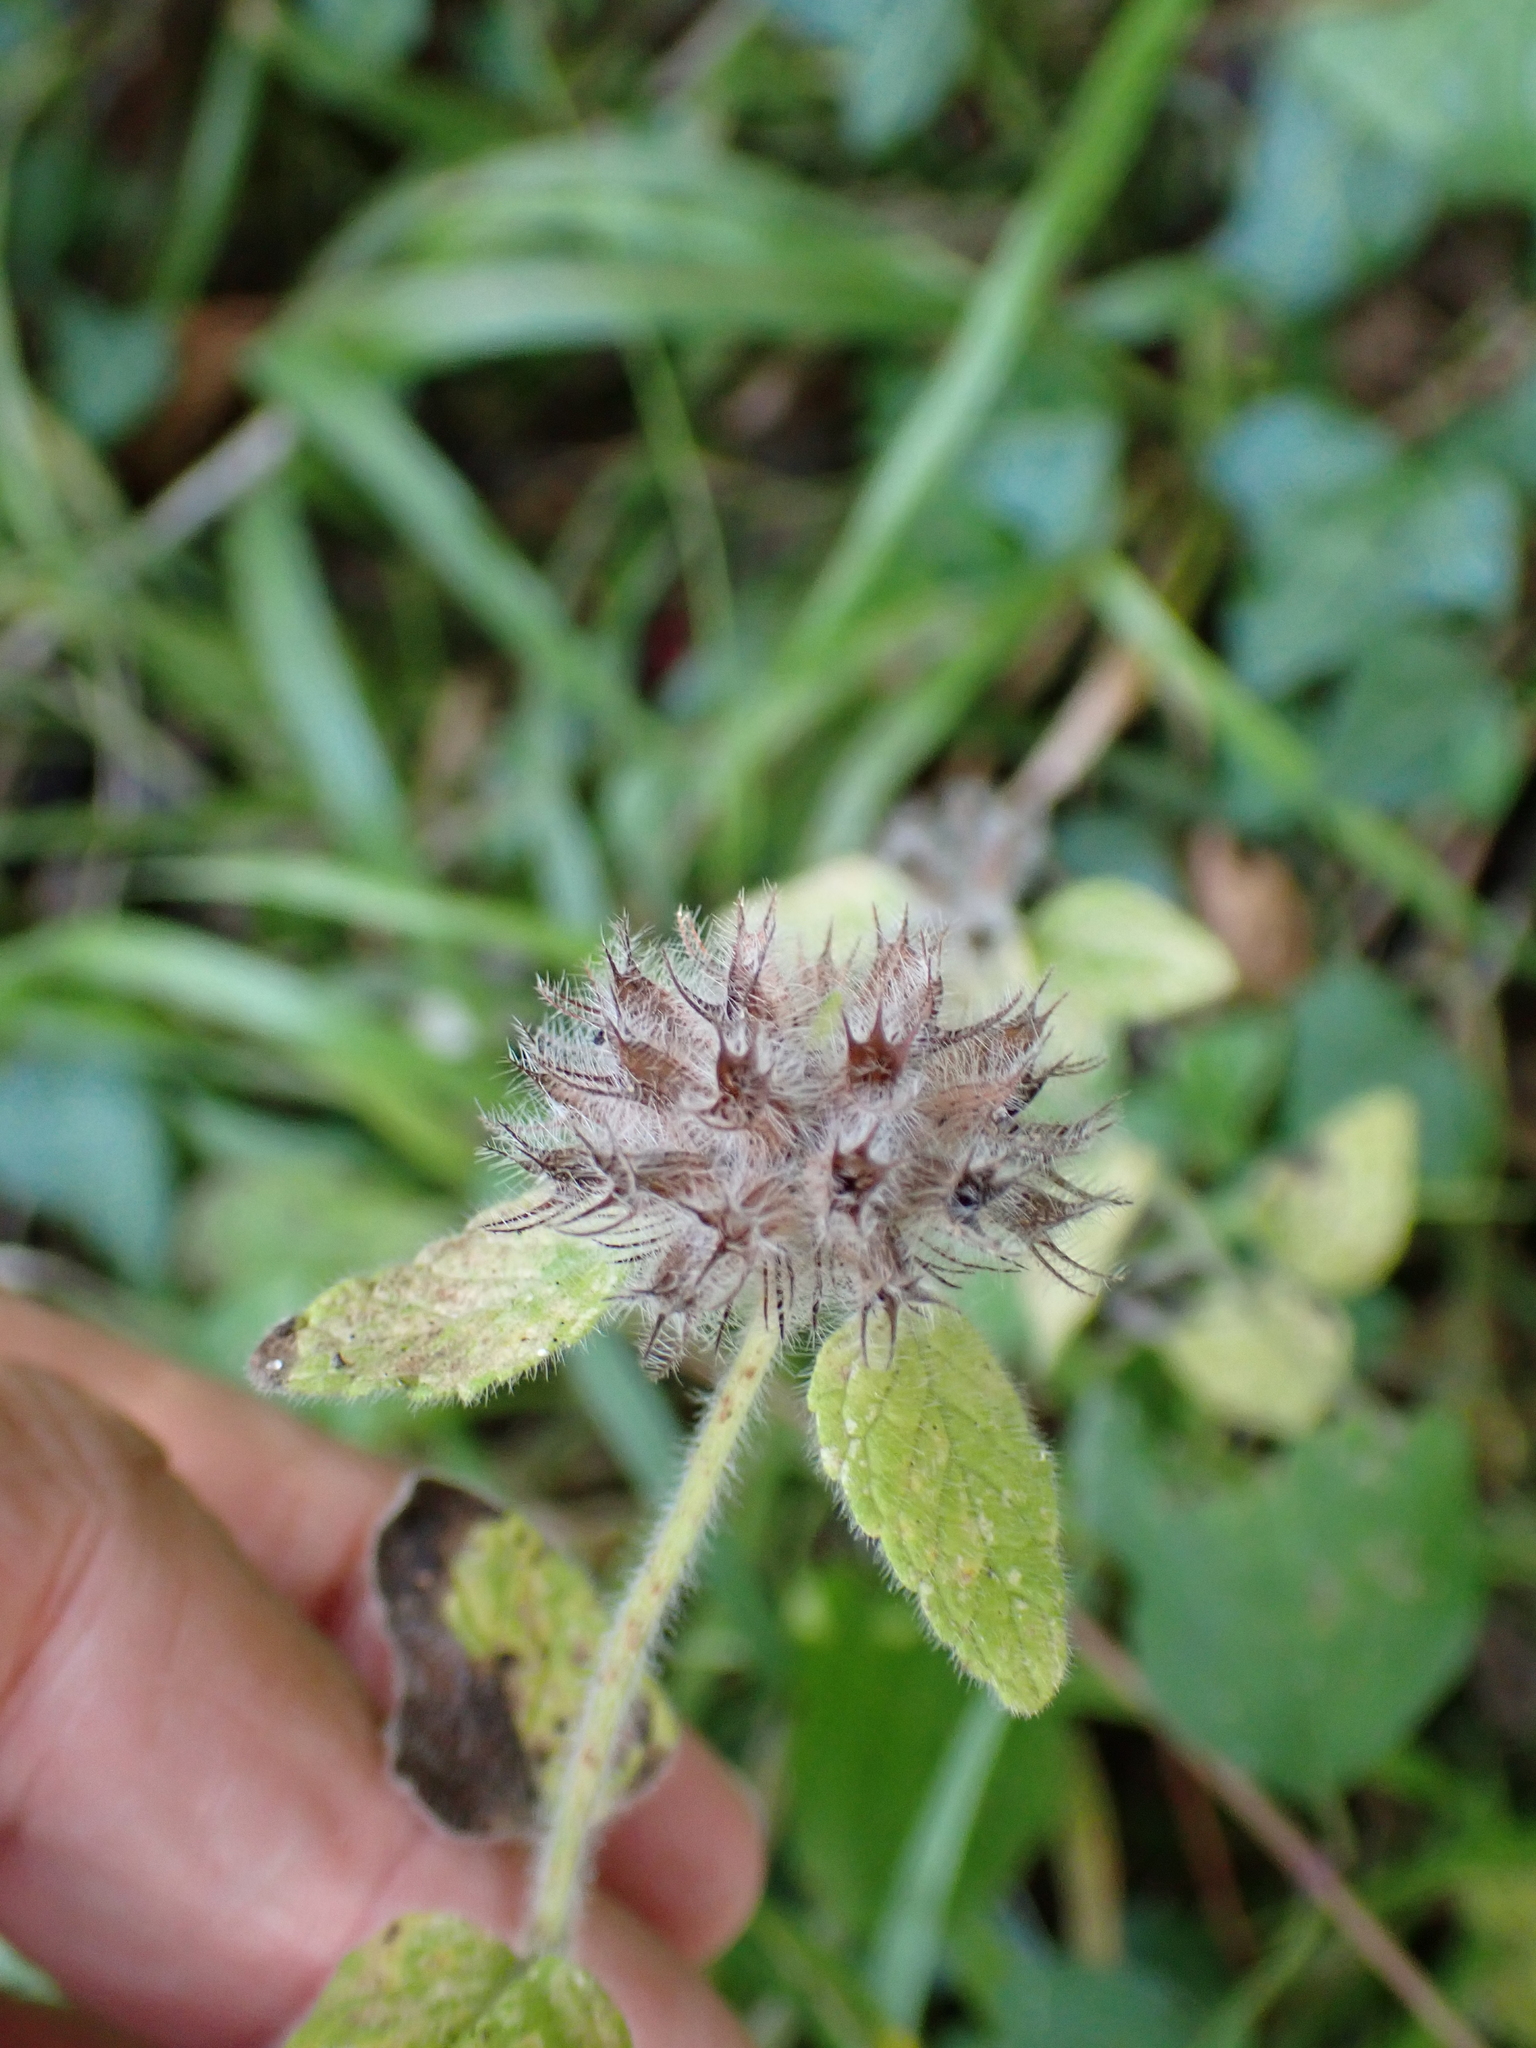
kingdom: Plantae
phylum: Tracheophyta
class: Magnoliopsida
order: Lamiales
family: Lamiaceae
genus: Clinopodium
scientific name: Clinopodium vulgare
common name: Wild basil
